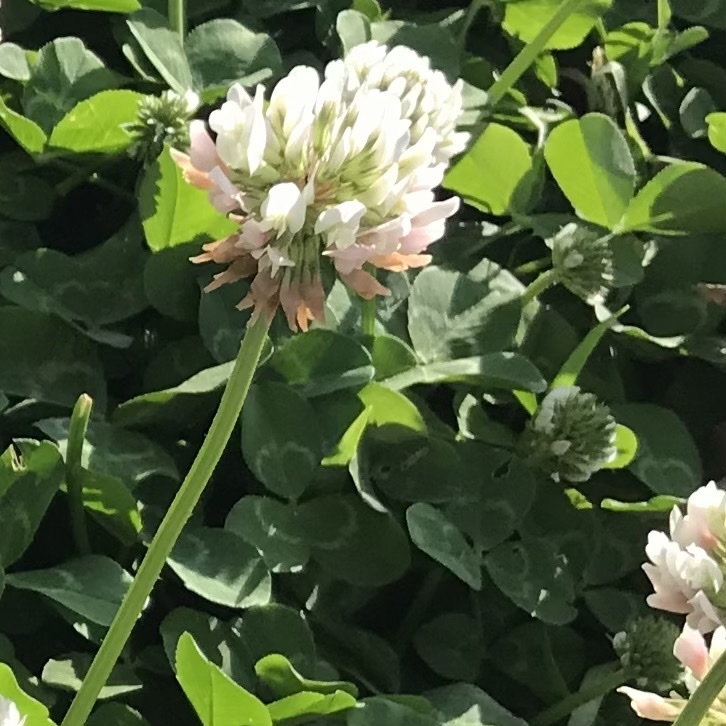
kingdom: Plantae
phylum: Tracheophyta
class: Magnoliopsida
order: Fabales
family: Fabaceae
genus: Trifolium
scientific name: Trifolium repens
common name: White clover
